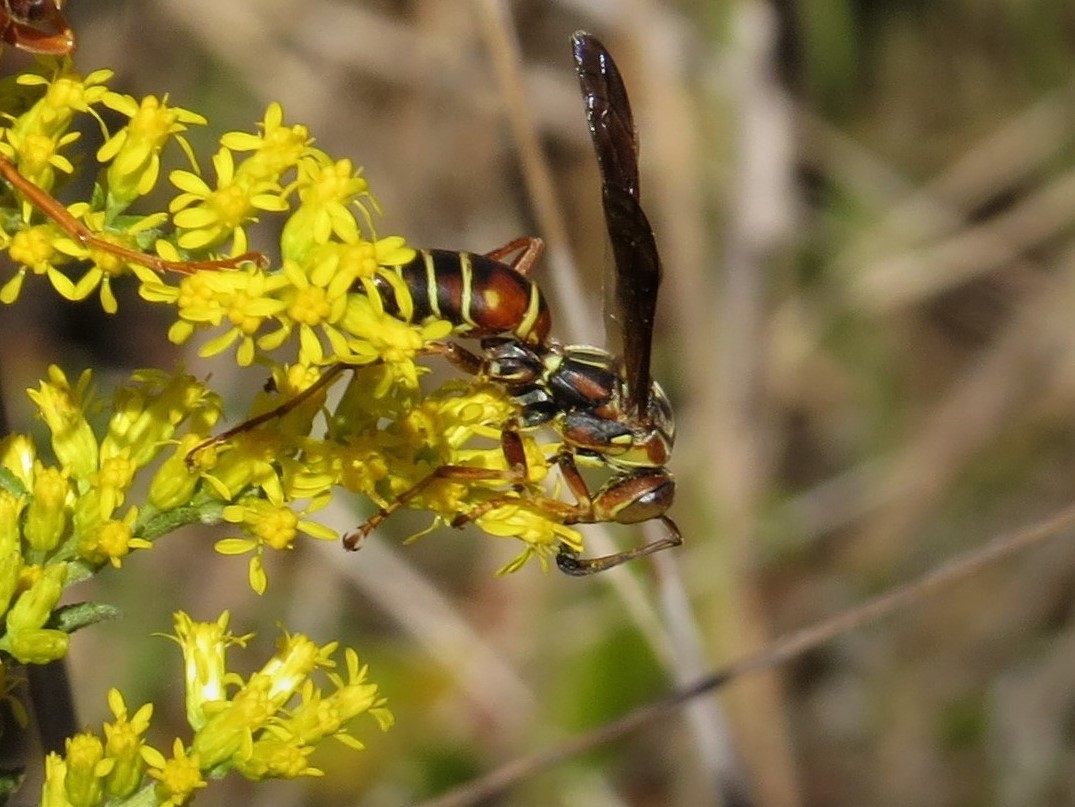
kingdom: Animalia
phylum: Arthropoda
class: Insecta
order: Hymenoptera
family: Eumenidae
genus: Polistes
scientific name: Polistes fuscatus
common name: Dark paper wasp
